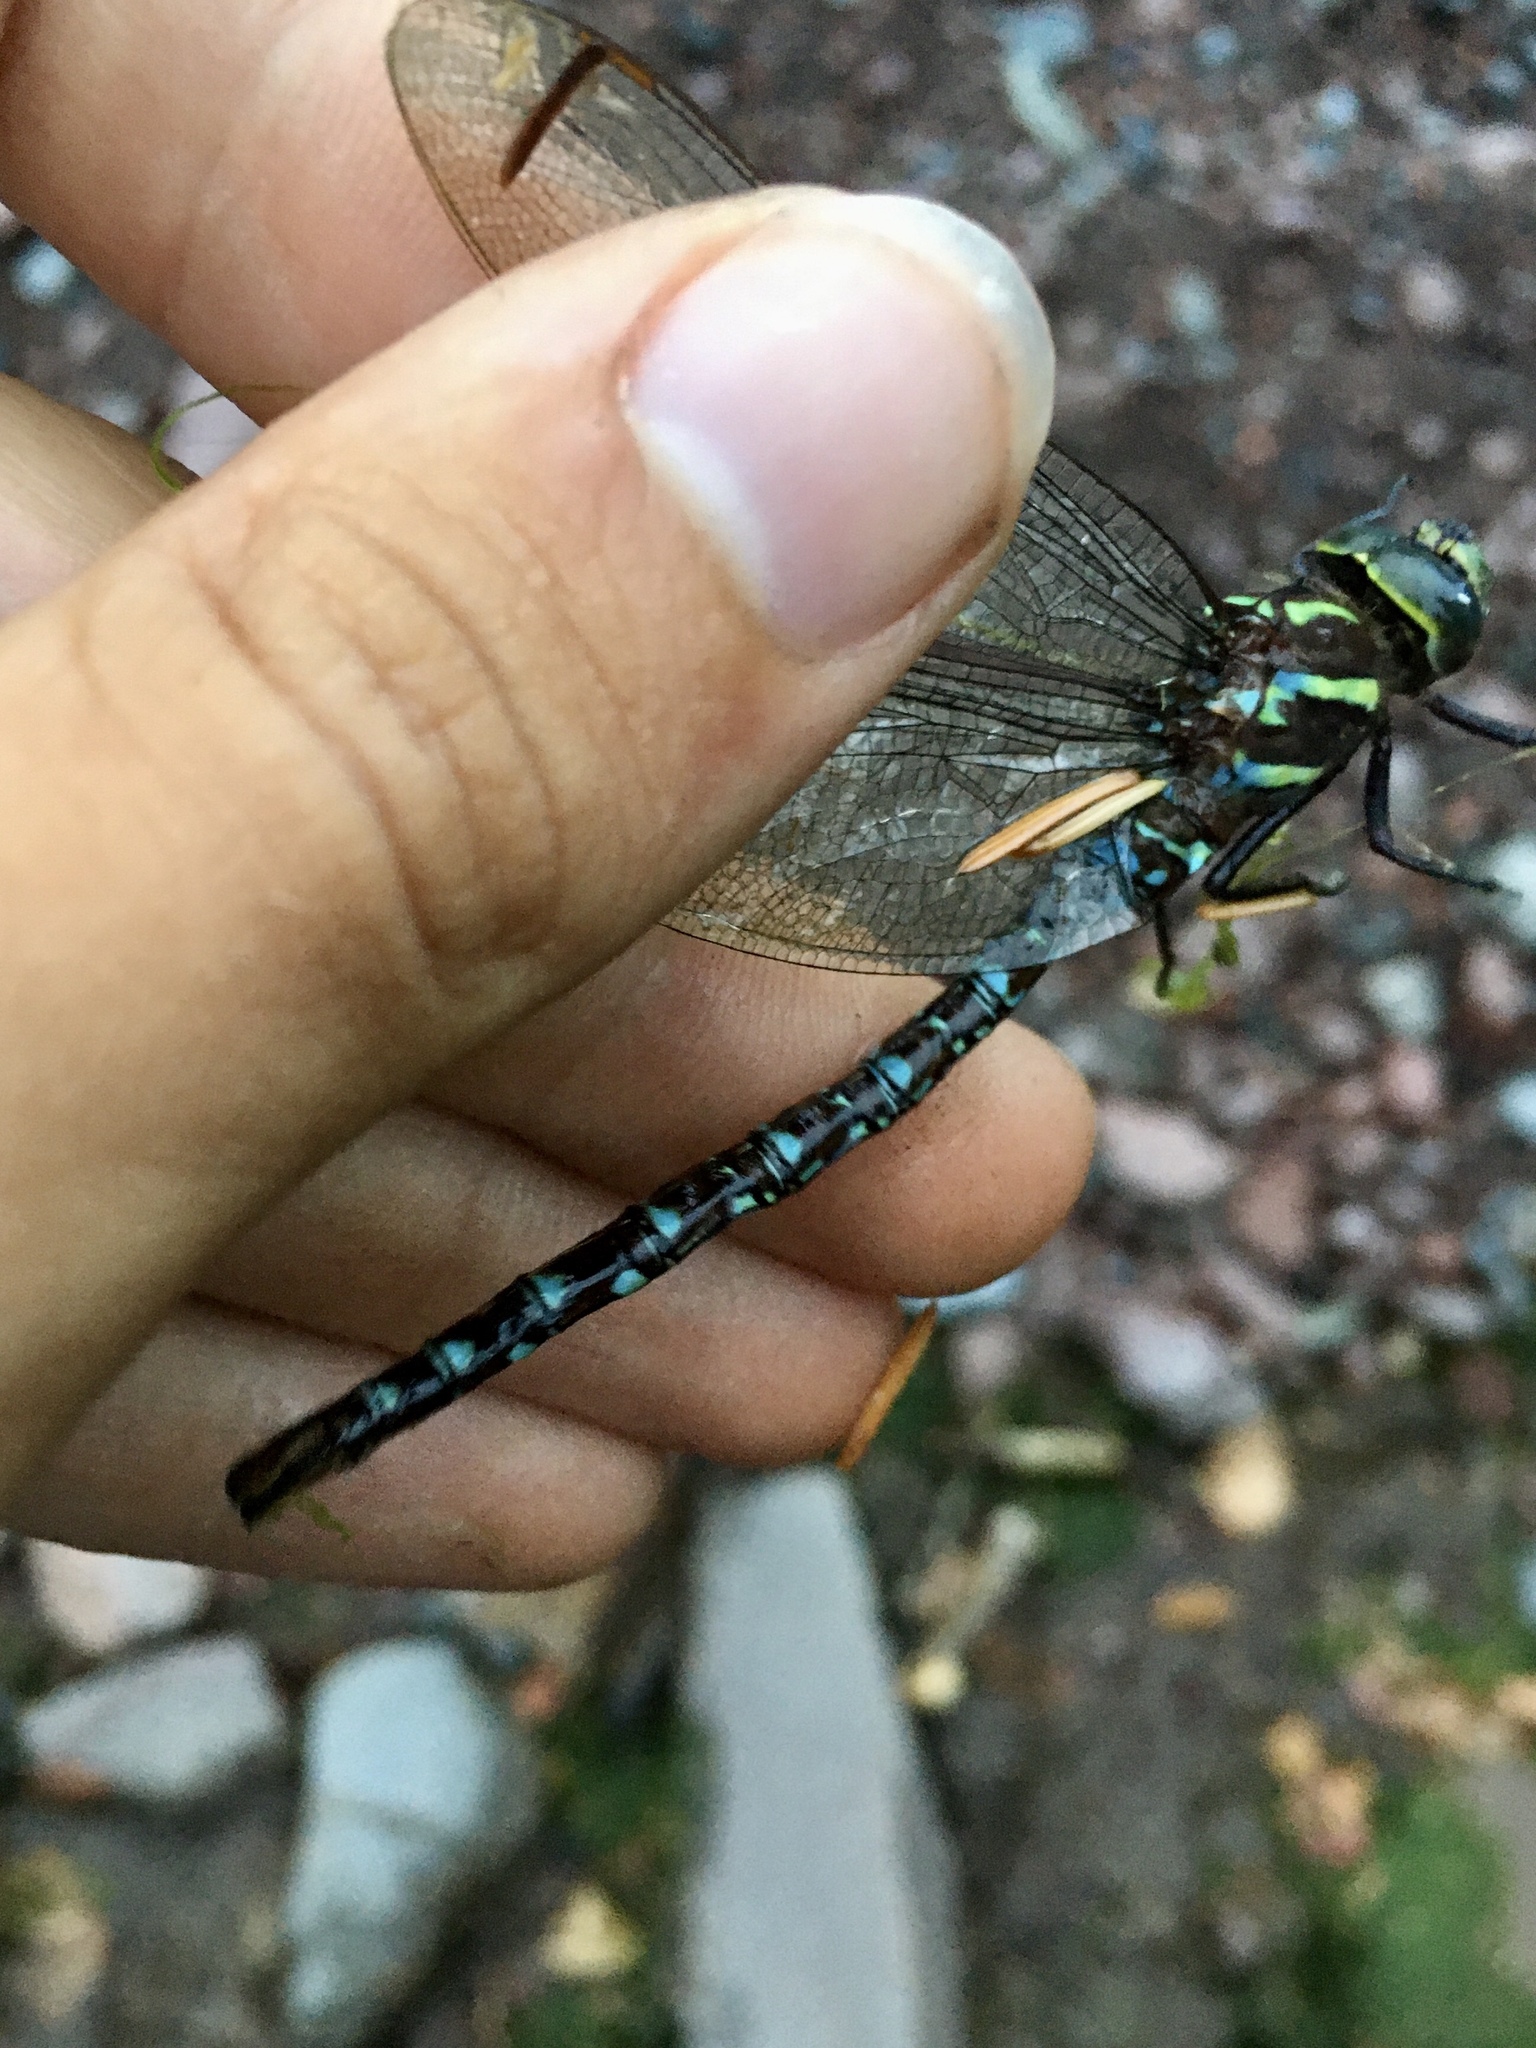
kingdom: Animalia
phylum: Arthropoda
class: Insecta
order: Odonata
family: Aeshnidae
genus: Aeshna
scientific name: Aeshna umbrosa
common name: Shadow darner
